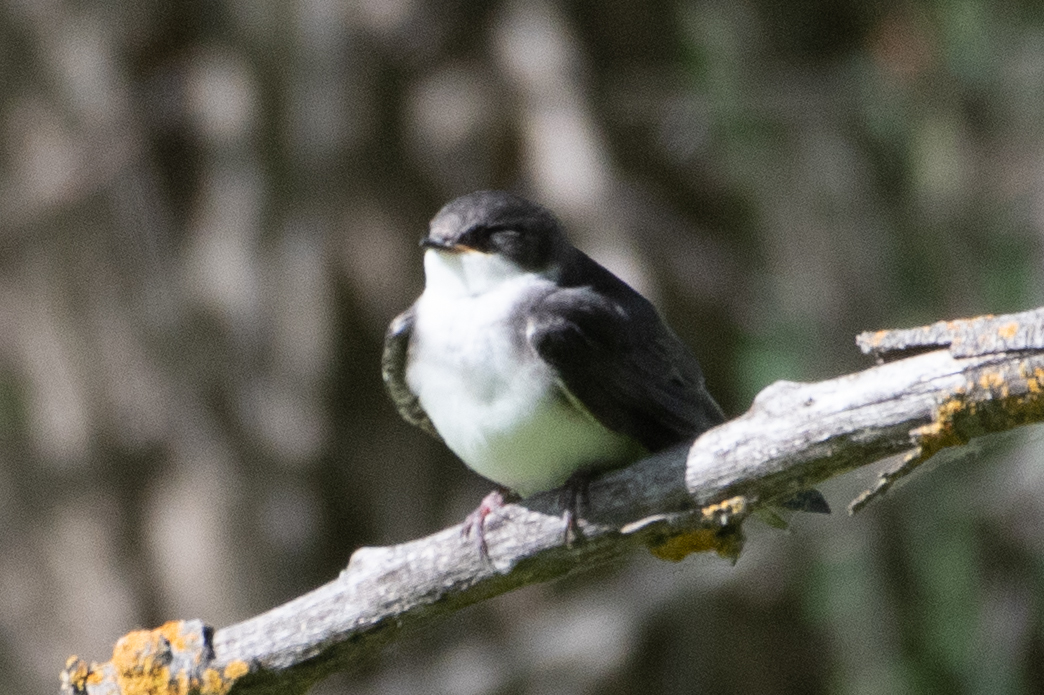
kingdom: Animalia
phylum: Chordata
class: Aves
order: Passeriformes
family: Hirundinidae
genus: Tachycineta
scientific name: Tachycineta bicolor
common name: Tree swallow
